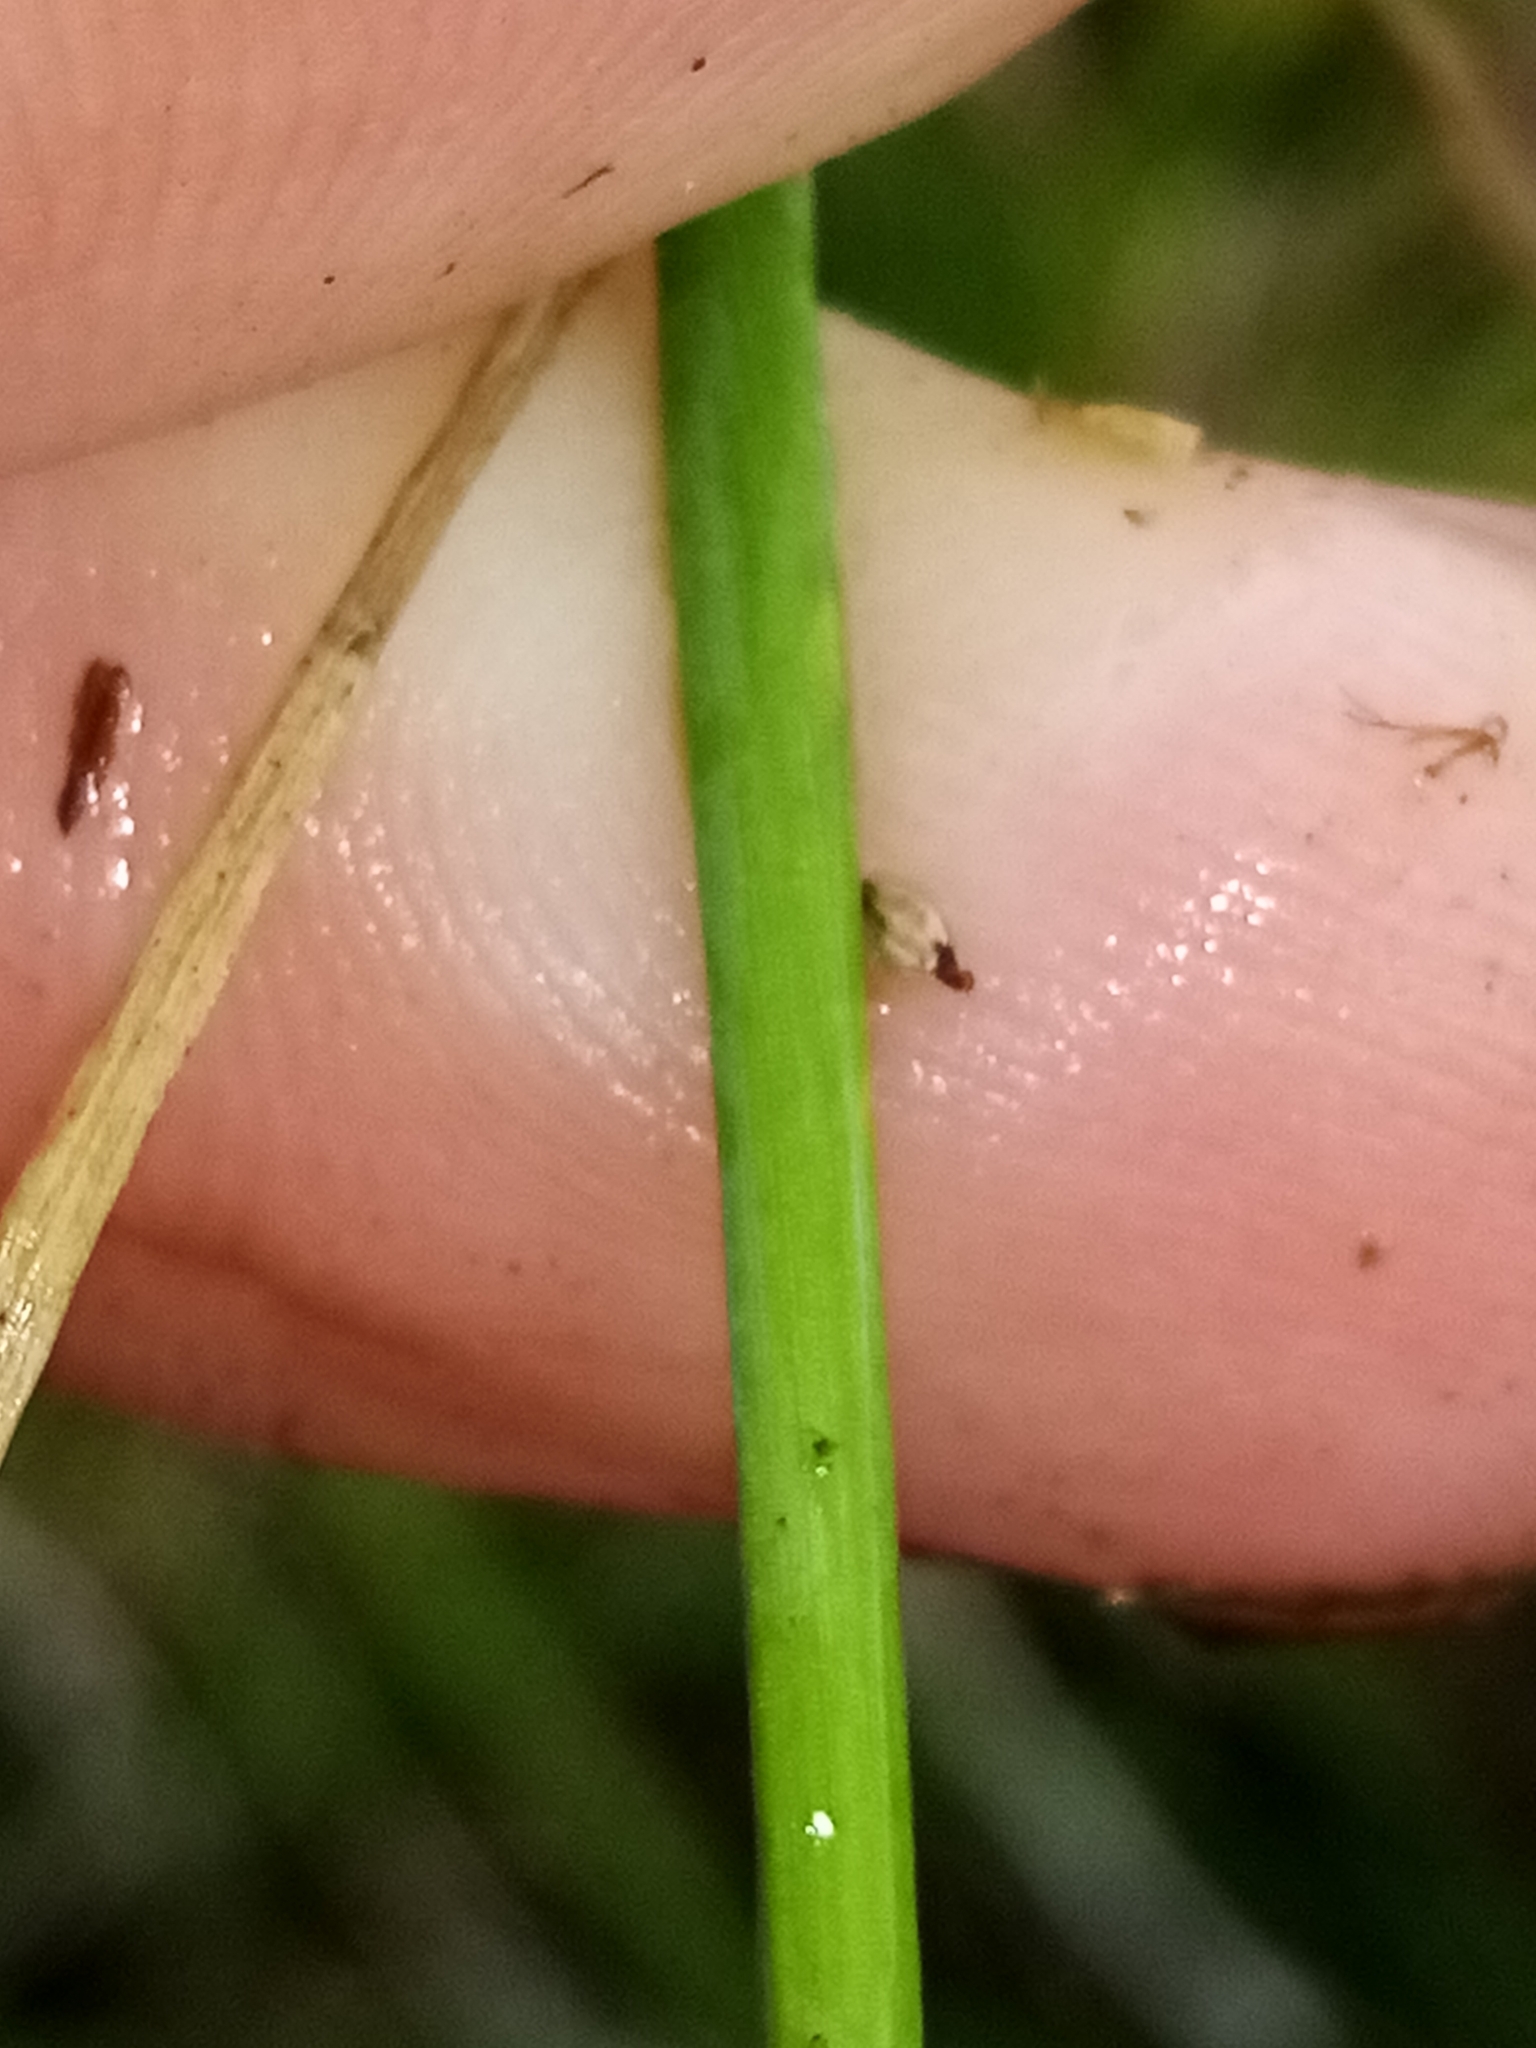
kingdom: Plantae
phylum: Tracheophyta
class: Liliopsida
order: Poales
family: Poaceae
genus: Alopecurus
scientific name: Alopecurus geniculatus
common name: Water foxtail
